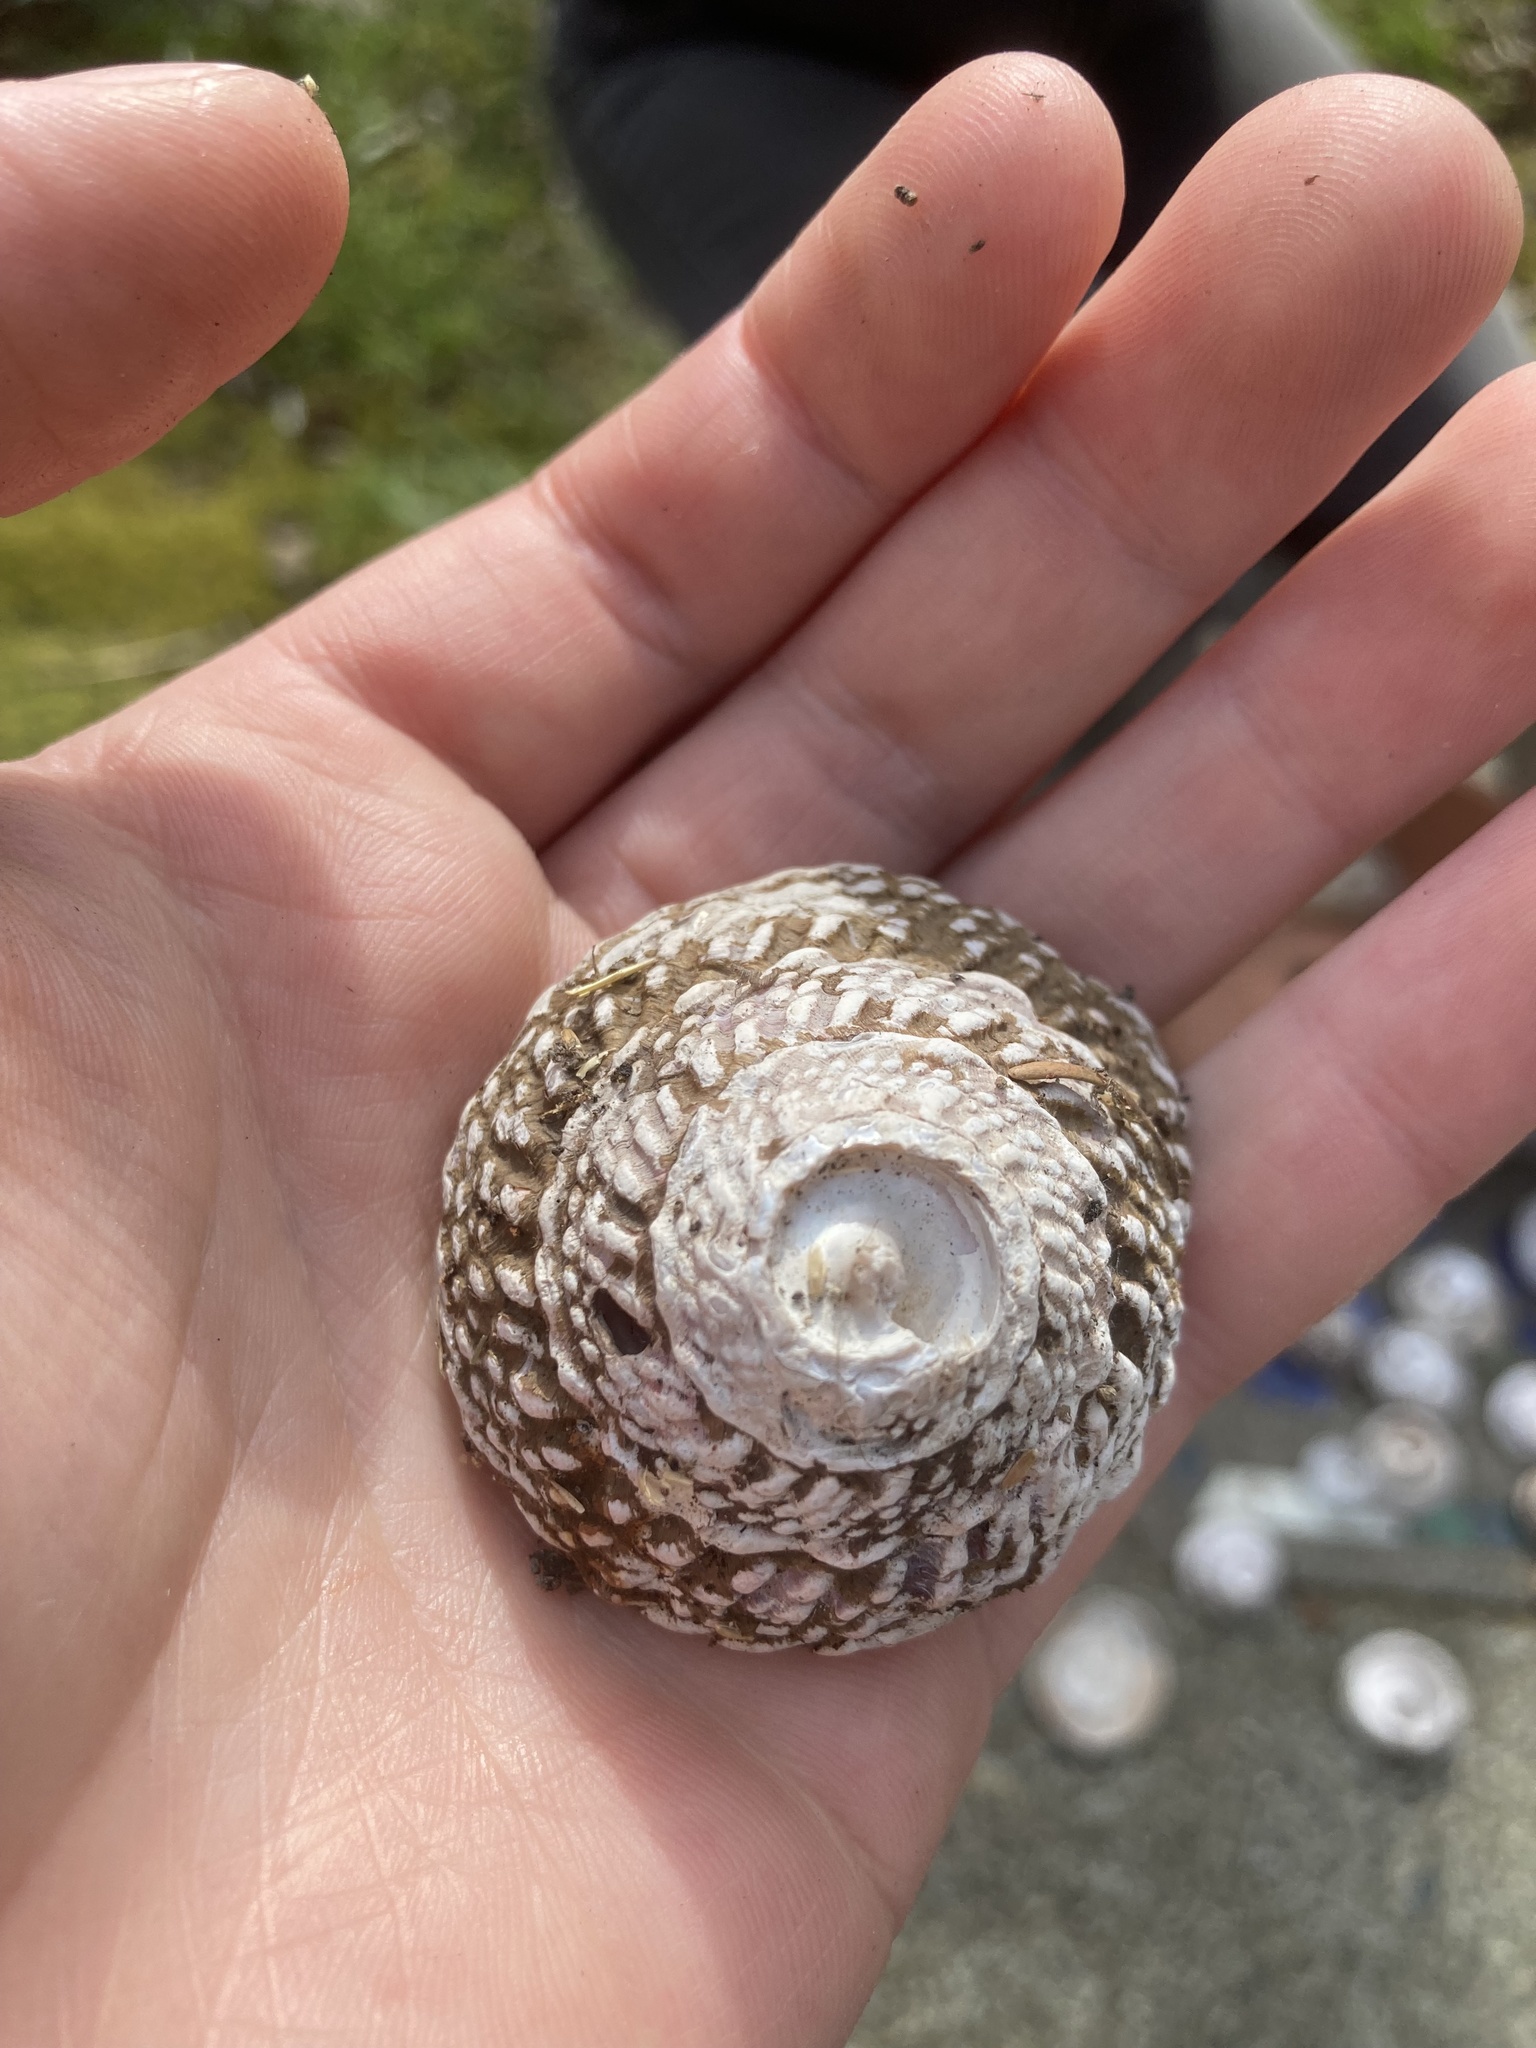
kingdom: Animalia
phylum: Mollusca
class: Gastropoda
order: Trochida
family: Turbinidae
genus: Pomaulax
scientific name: Pomaulax gibberosus
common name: Red turban
